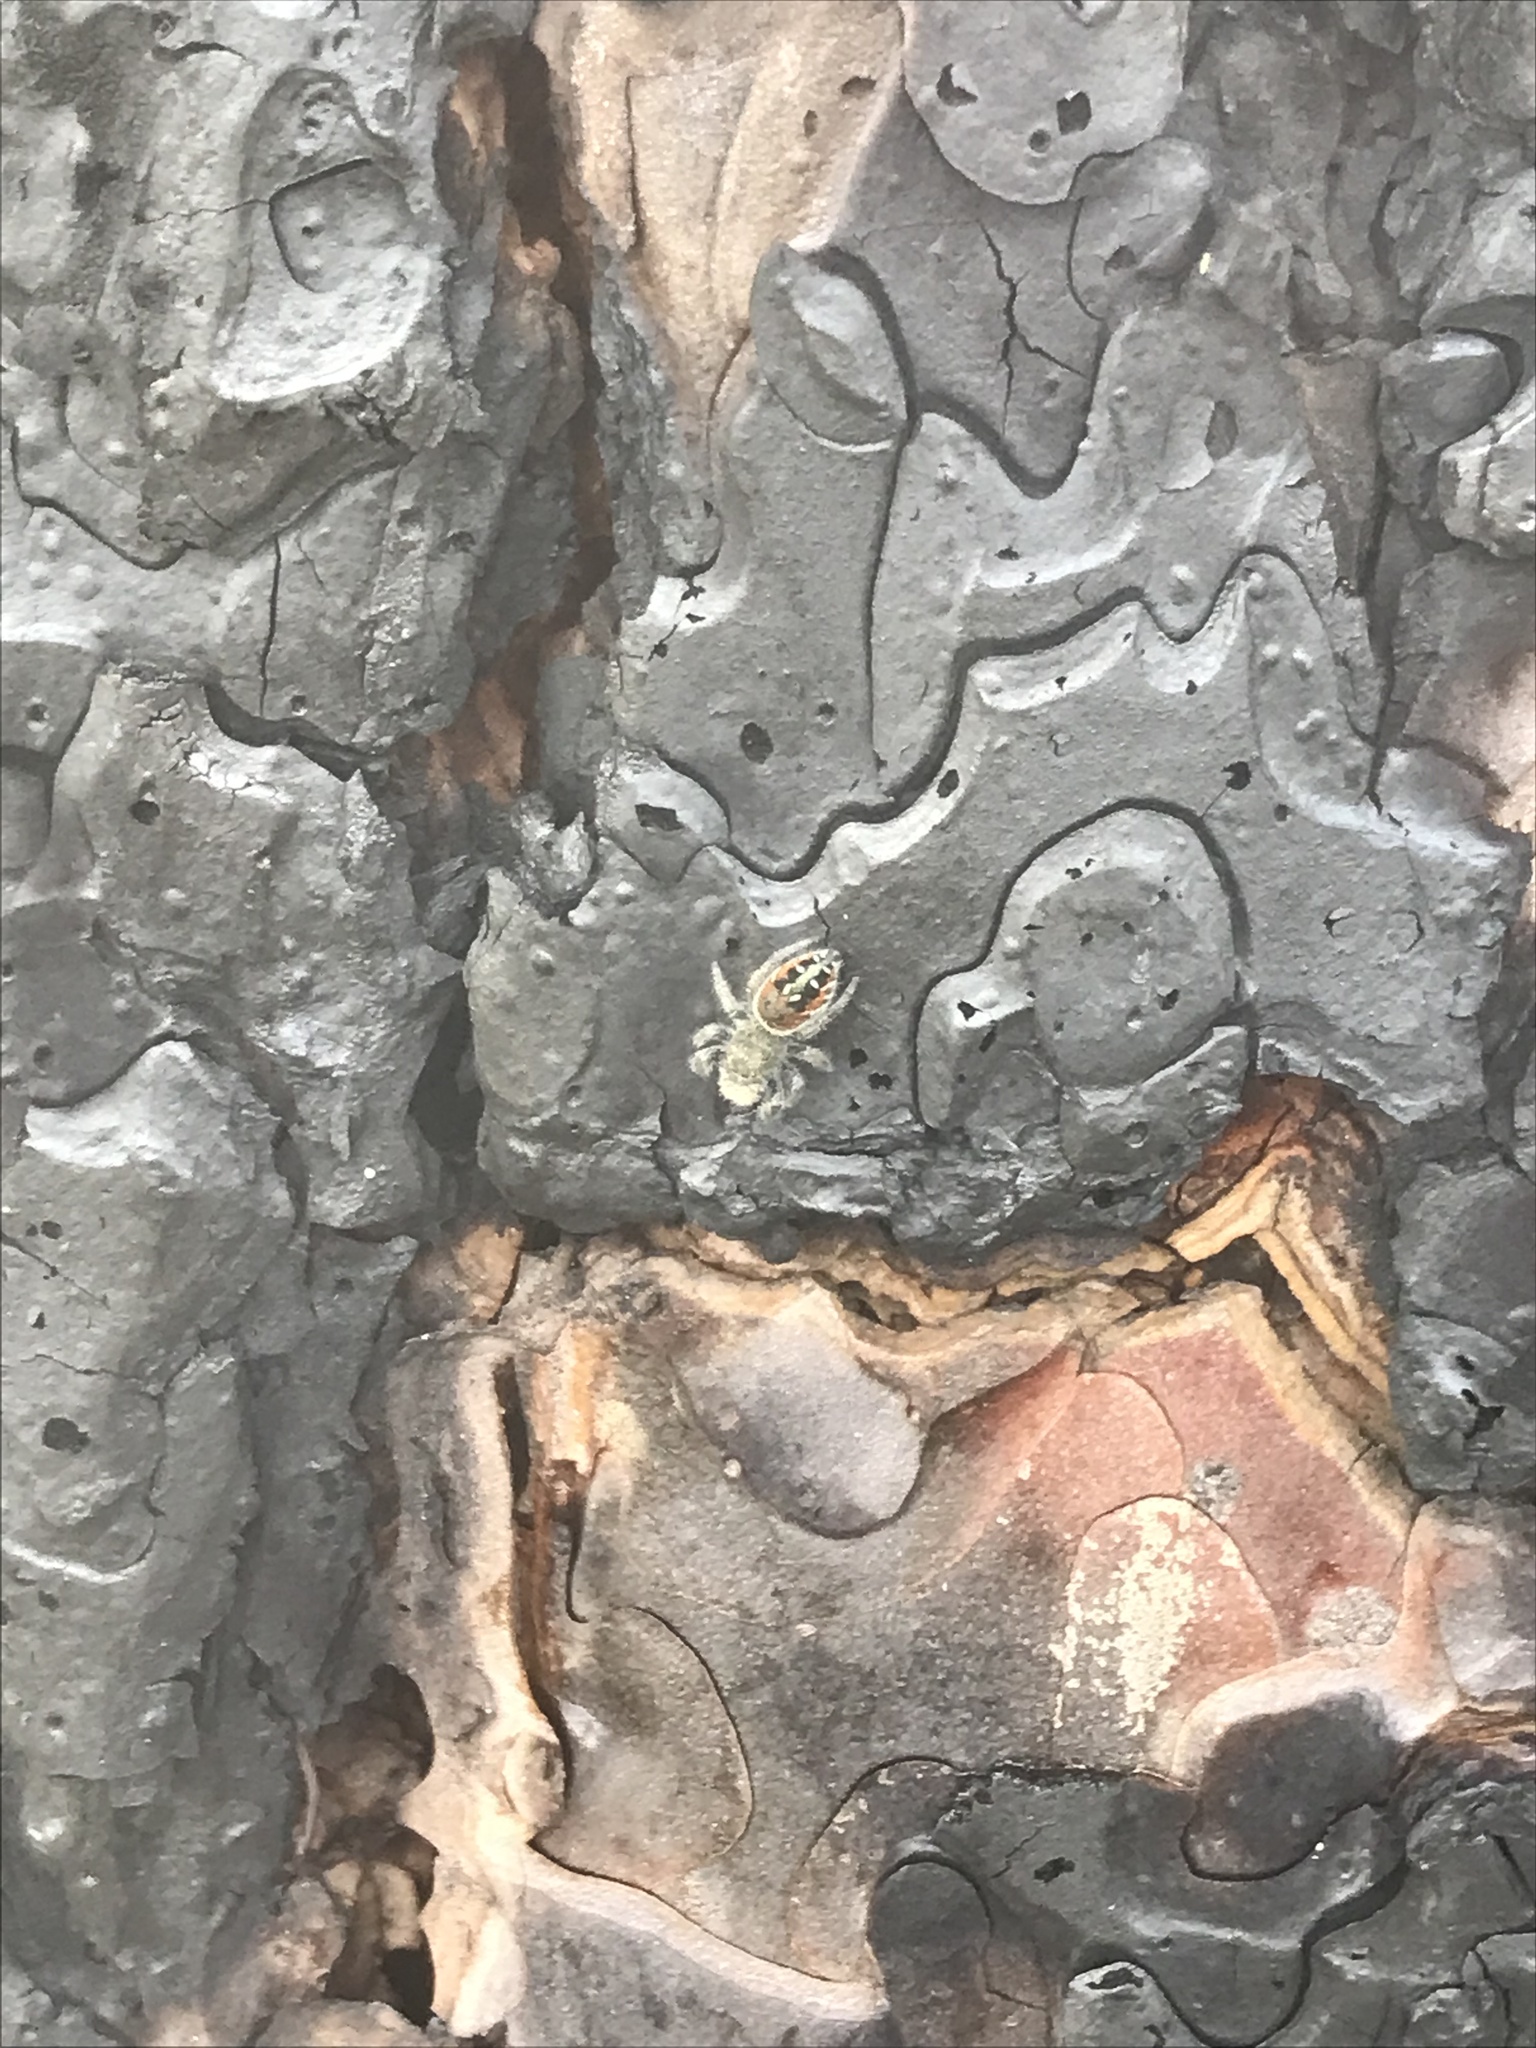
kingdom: Animalia
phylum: Arthropoda
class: Arachnida
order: Araneae
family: Salticidae
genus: Phidippus
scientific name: Phidippus johnsoni
